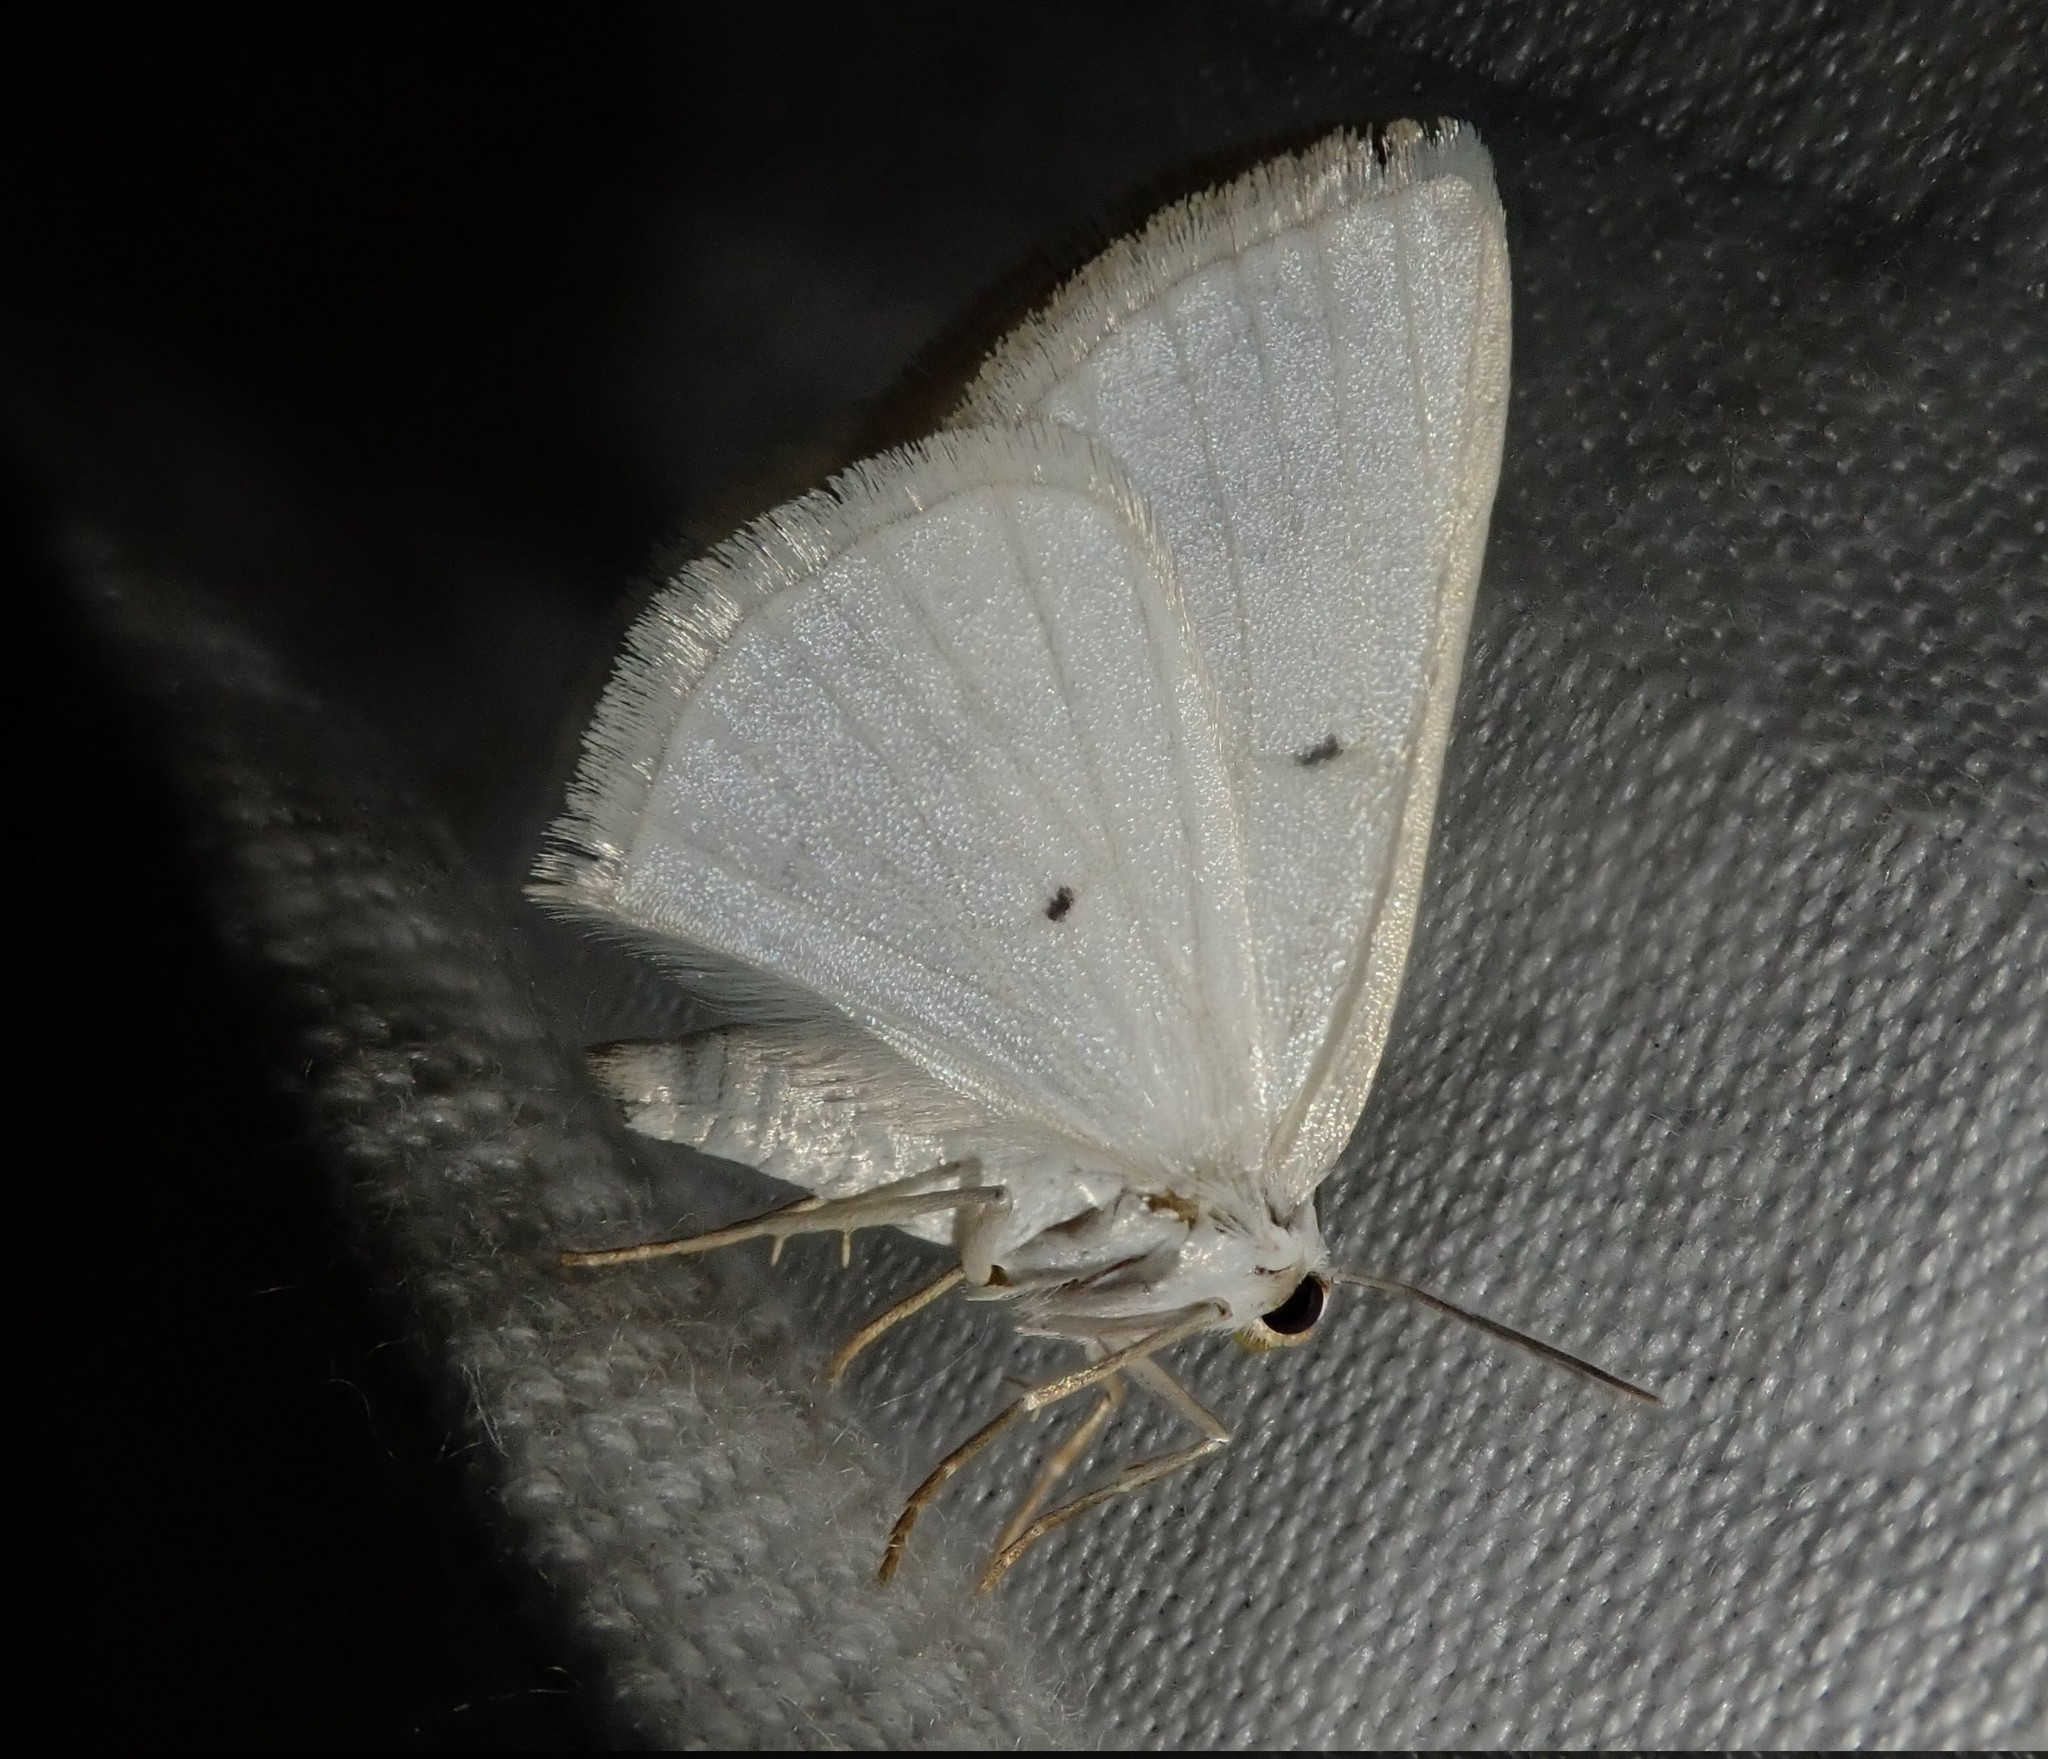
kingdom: Animalia
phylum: Arthropoda
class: Insecta
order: Lepidoptera
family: Geometridae
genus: Lomographa
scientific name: Lomographa temerata
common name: Clouded silver
